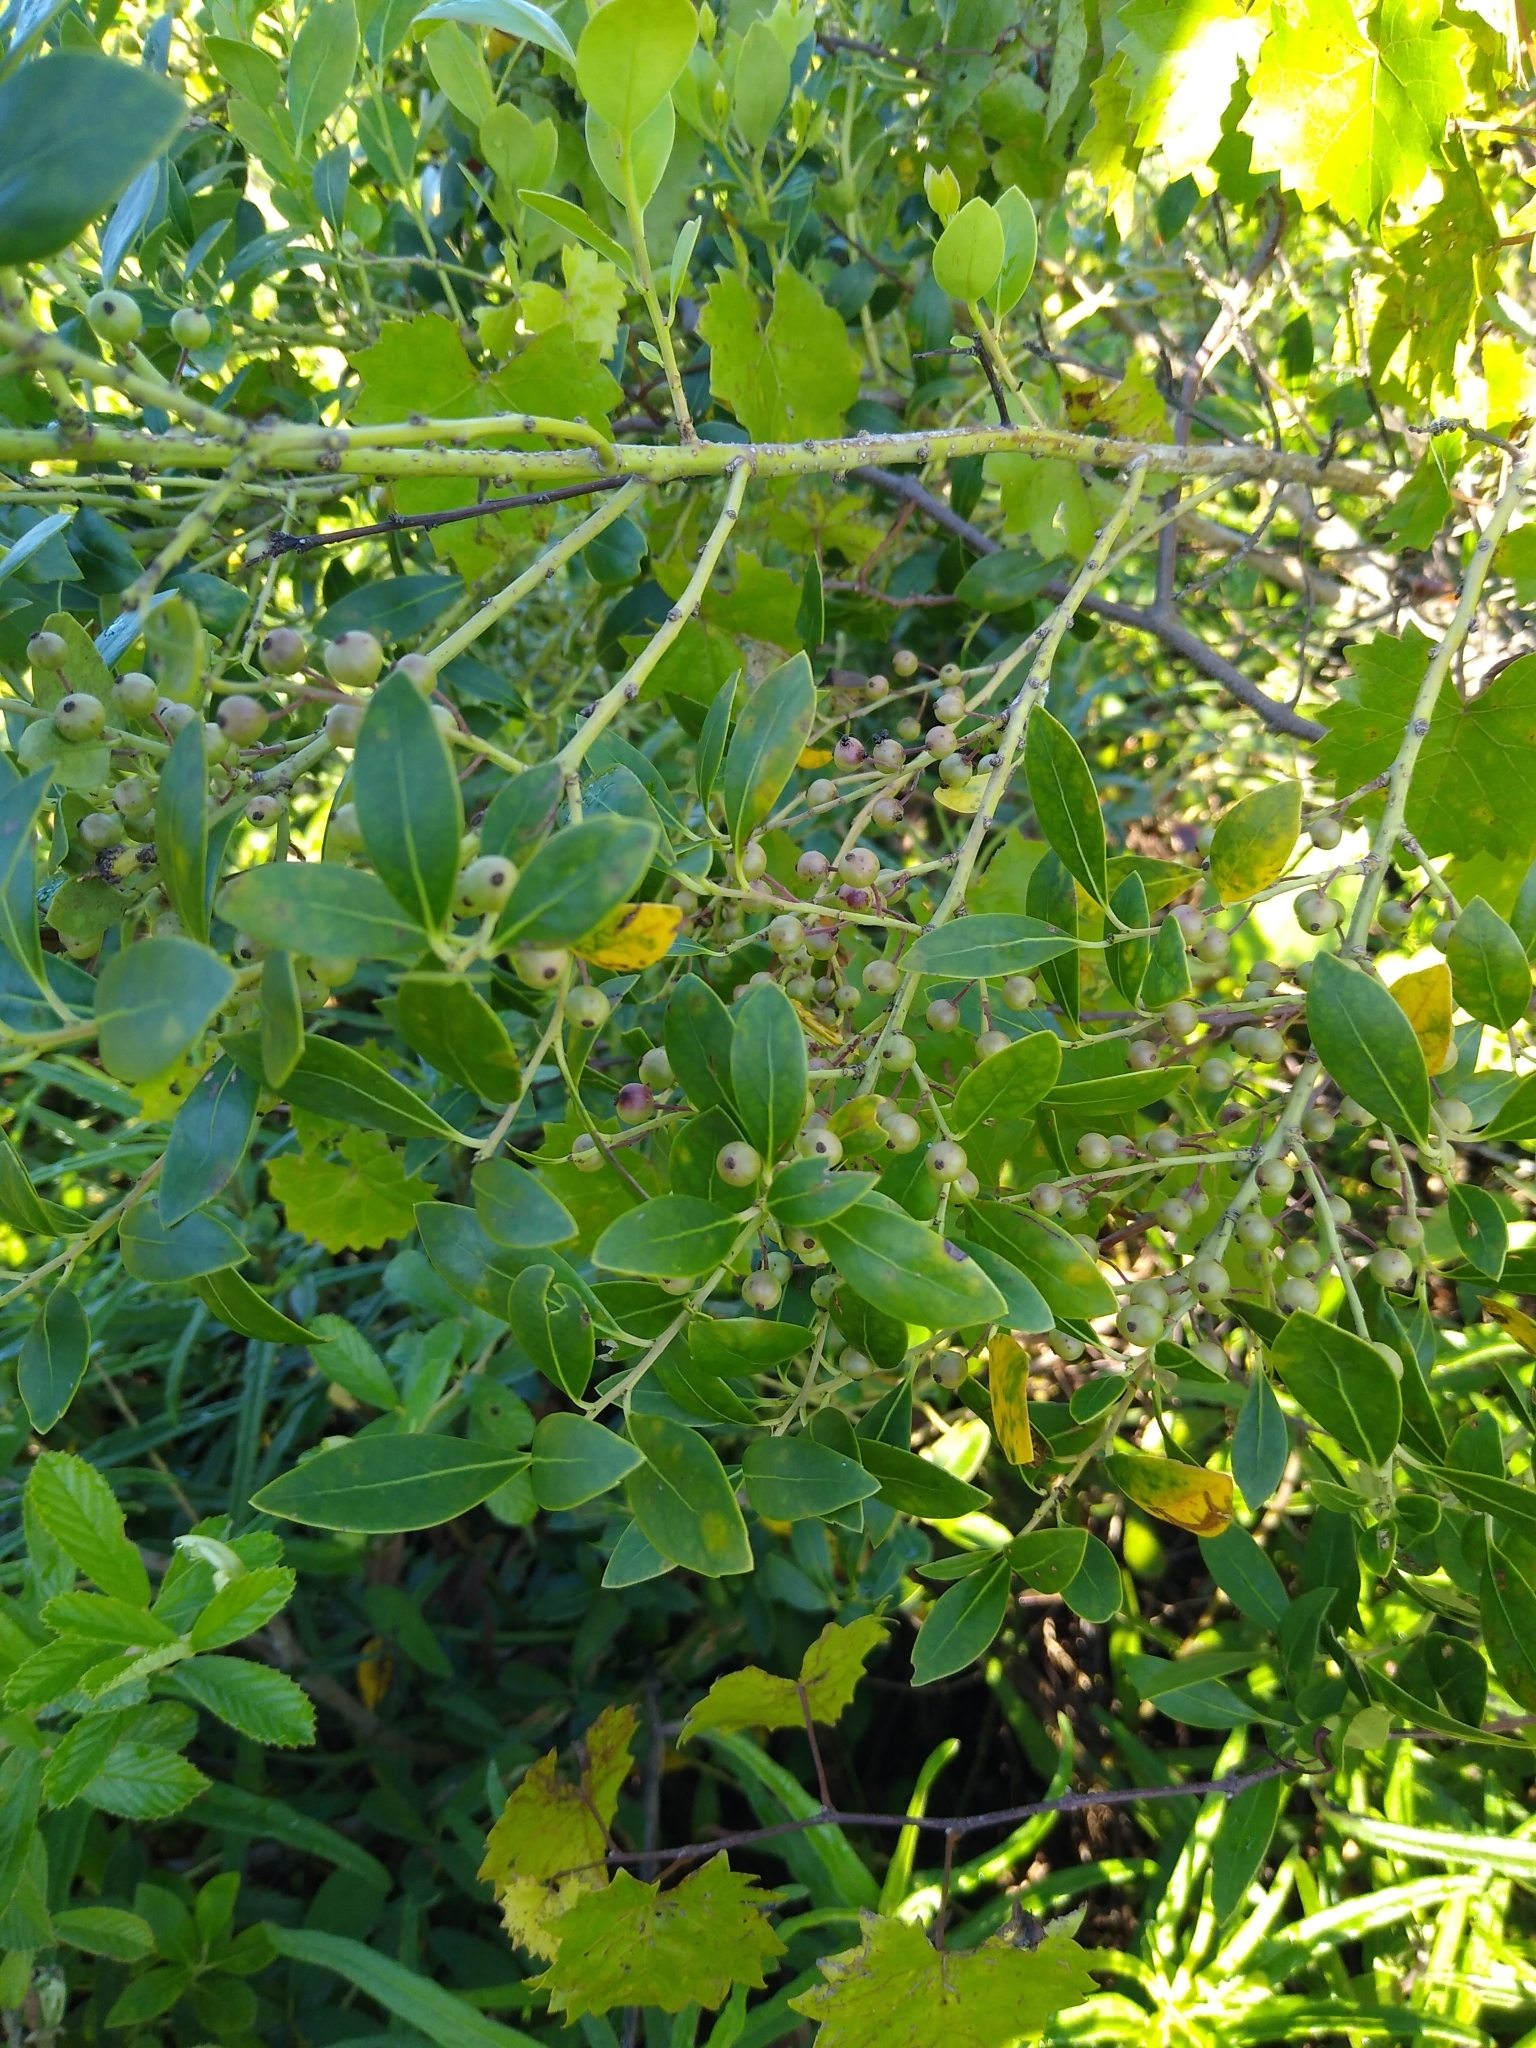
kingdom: Plantae
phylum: Tracheophyta
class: Magnoliopsida
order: Aquifoliales
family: Aquifoliaceae
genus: Ilex
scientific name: Ilex glabra
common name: Bitter gallberry
